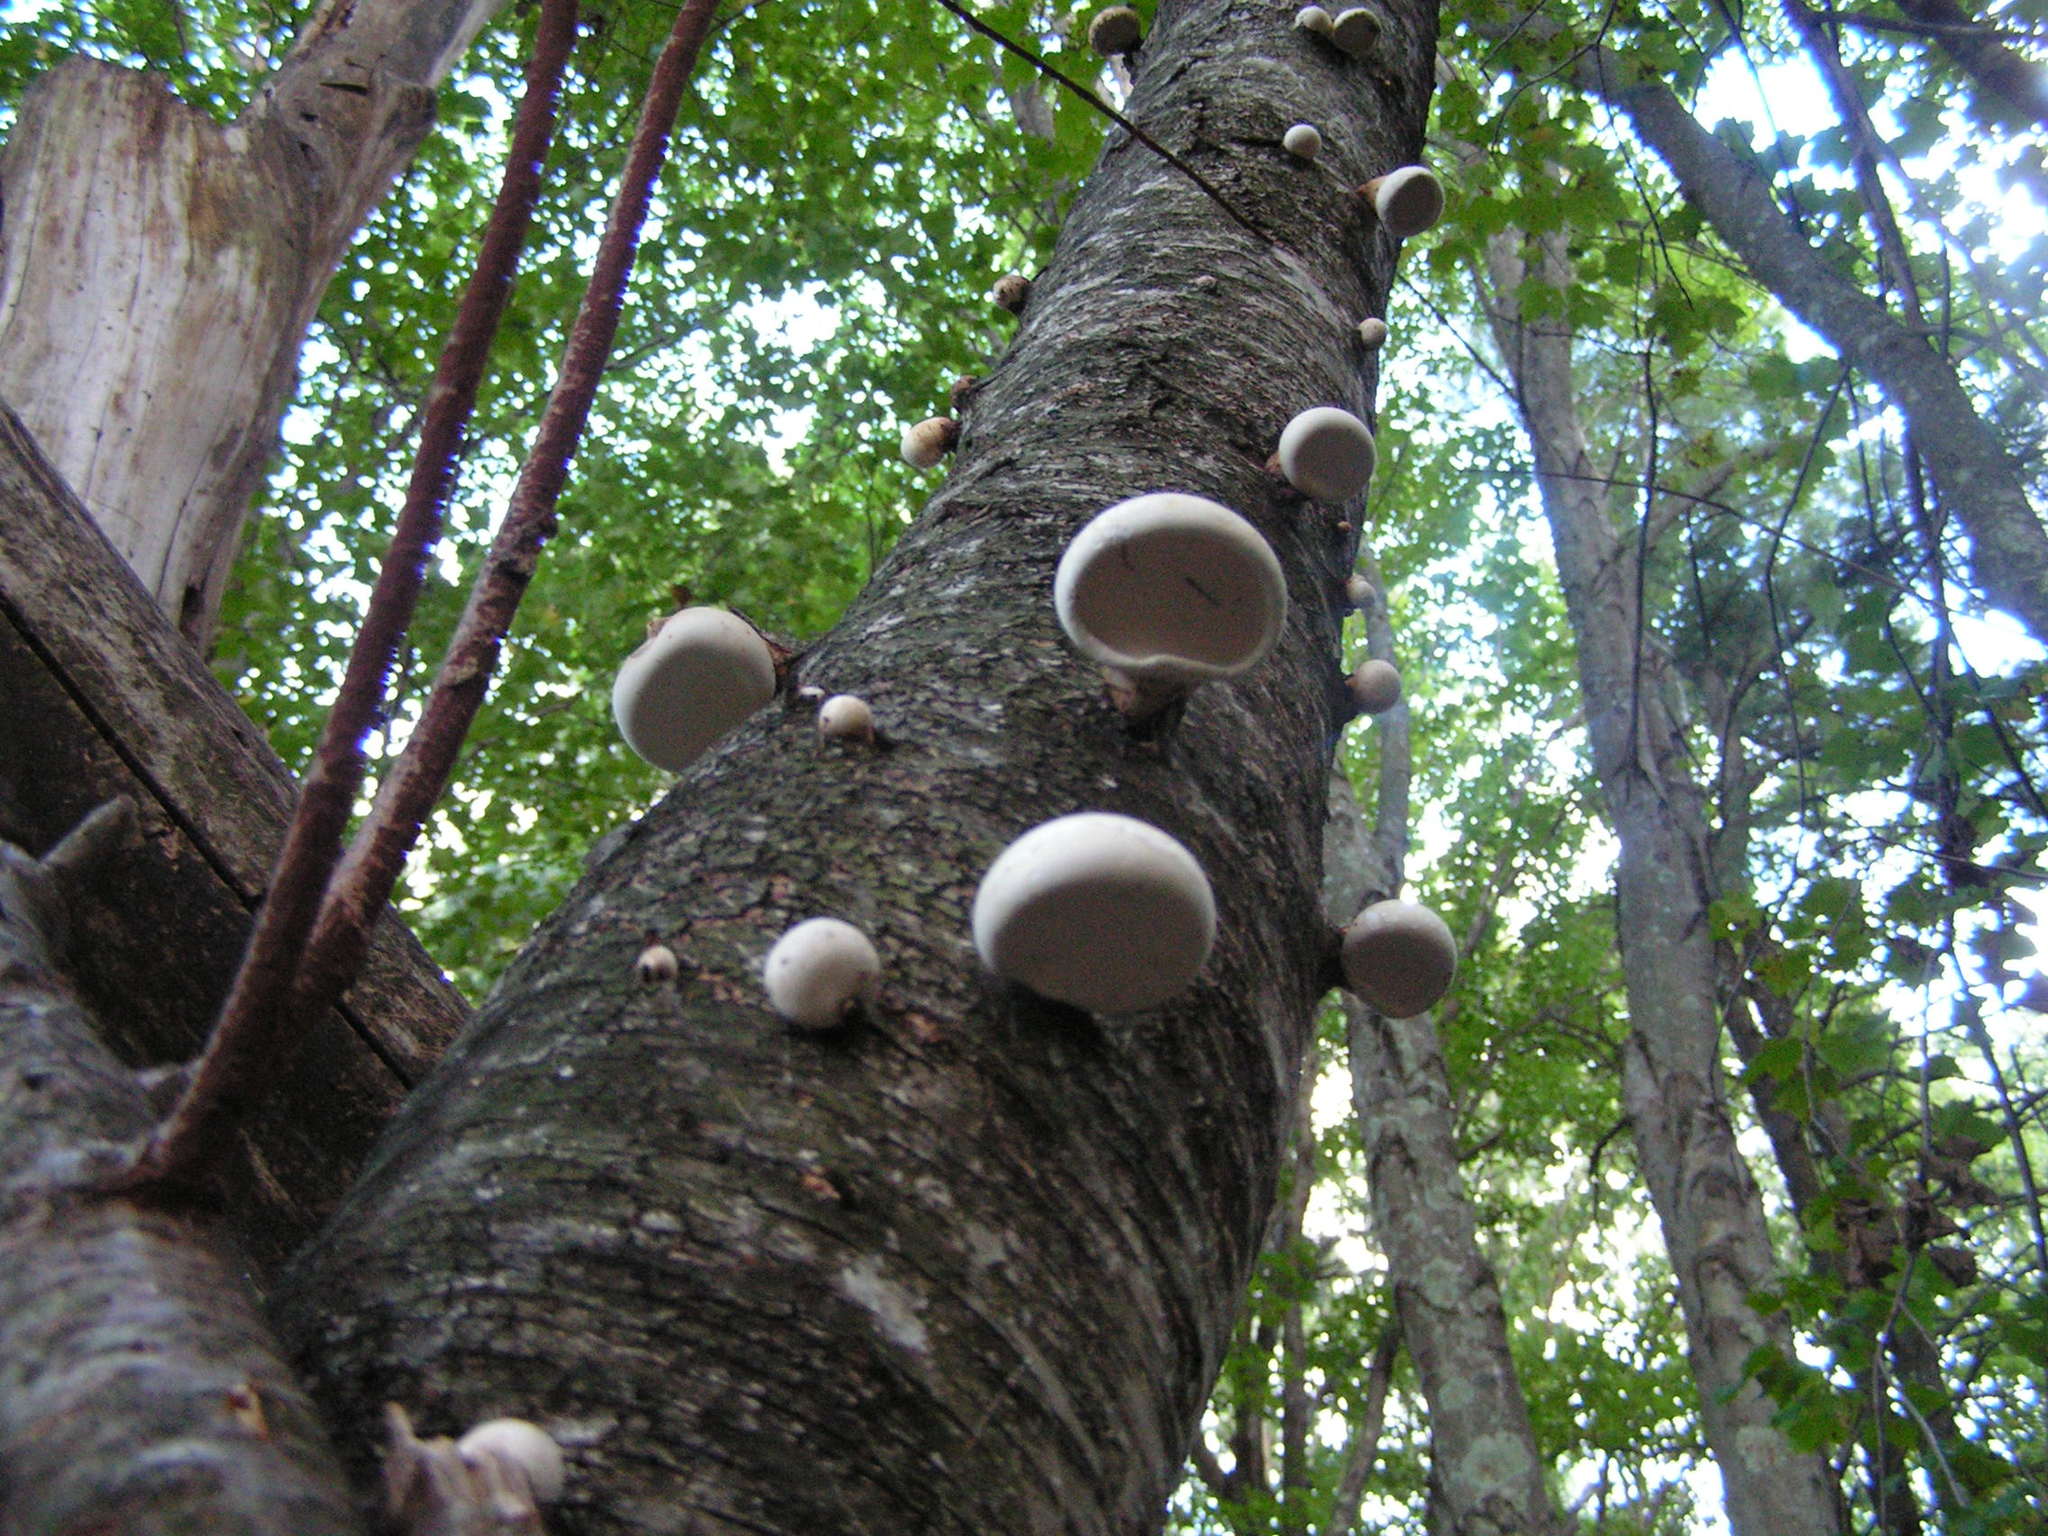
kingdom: Fungi
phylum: Basidiomycota
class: Agaricomycetes
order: Polyporales
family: Fomitopsidaceae
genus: Fomitopsis
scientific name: Fomitopsis betulina
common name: Birch polypore
